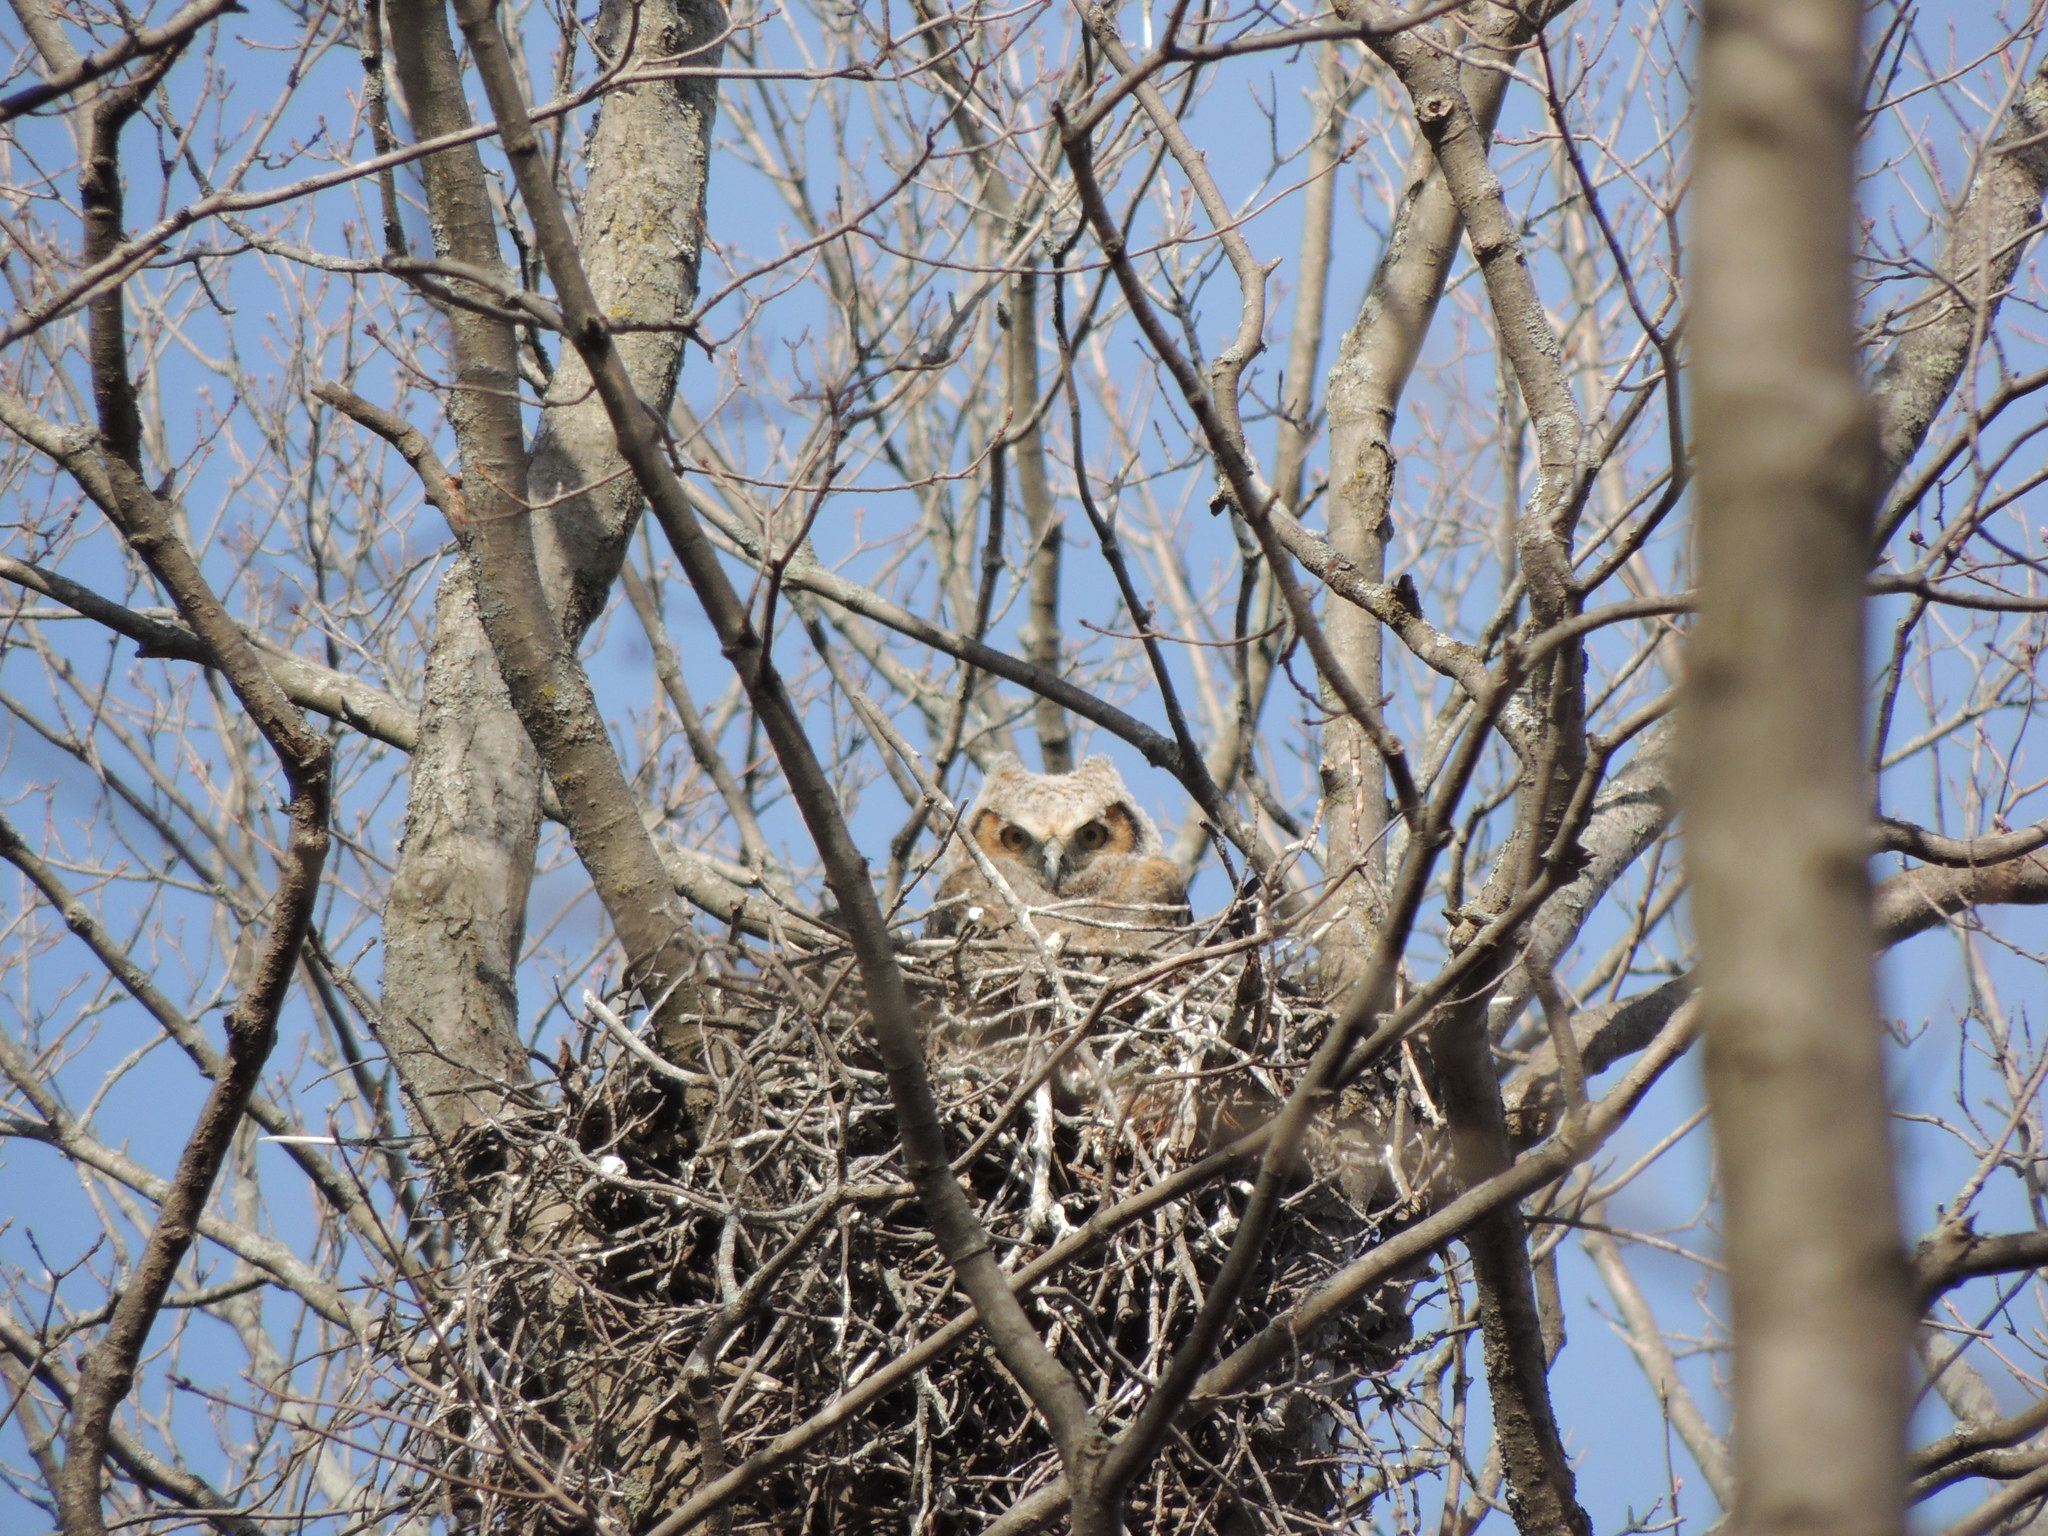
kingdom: Animalia
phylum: Chordata
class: Aves
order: Strigiformes
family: Strigidae
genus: Bubo
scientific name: Bubo virginianus
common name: Great horned owl
